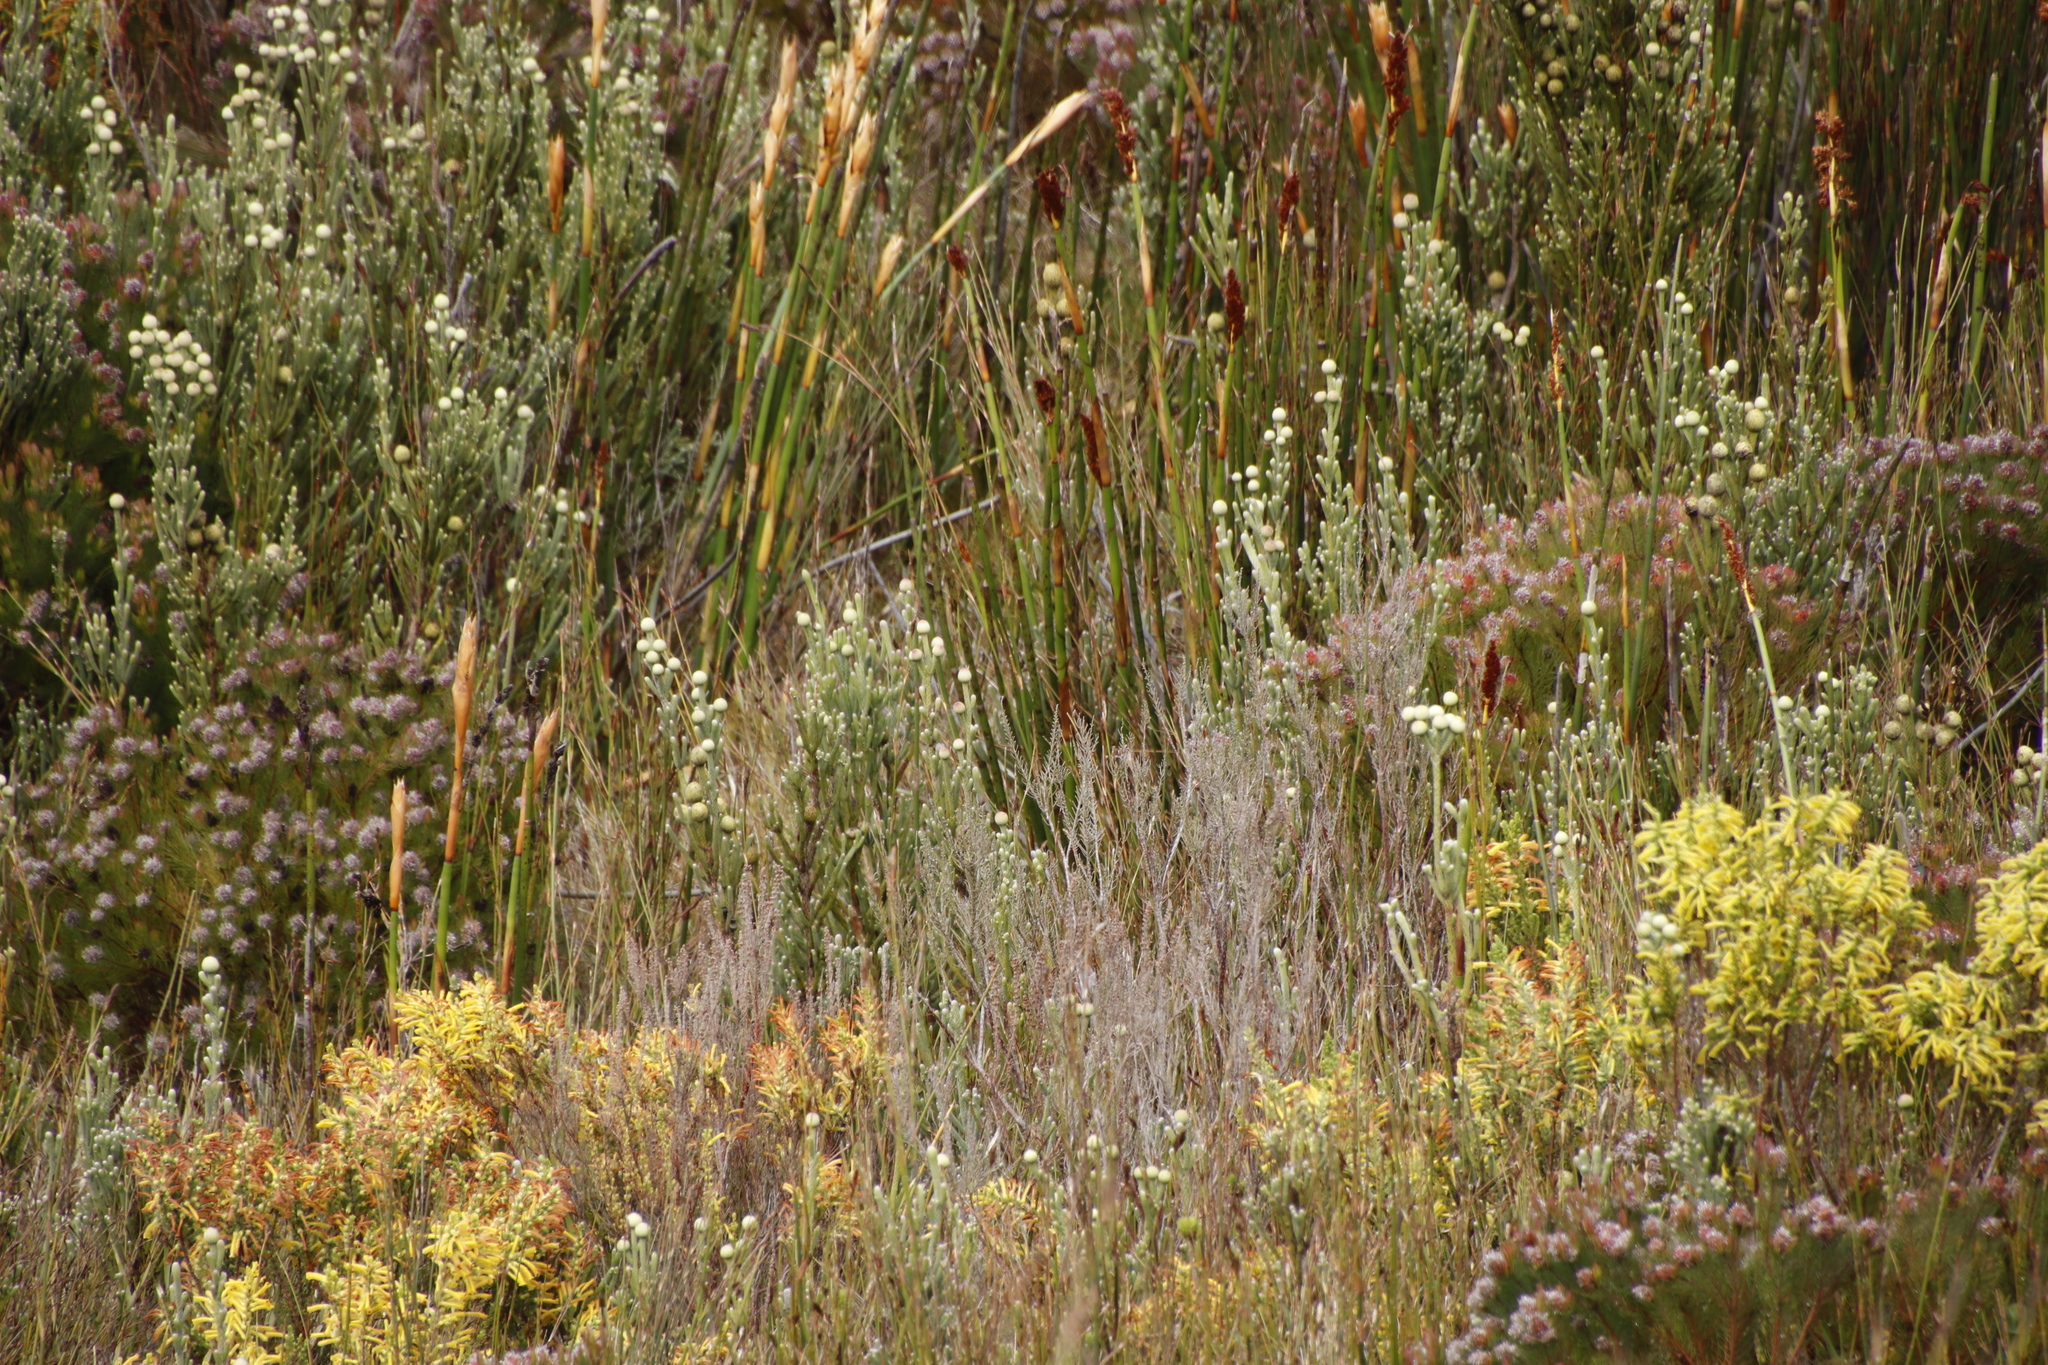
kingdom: Plantae
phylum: Tracheophyta
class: Magnoliopsida
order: Bruniales
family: Bruniaceae
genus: Brunia
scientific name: Brunia sphaerocephala
